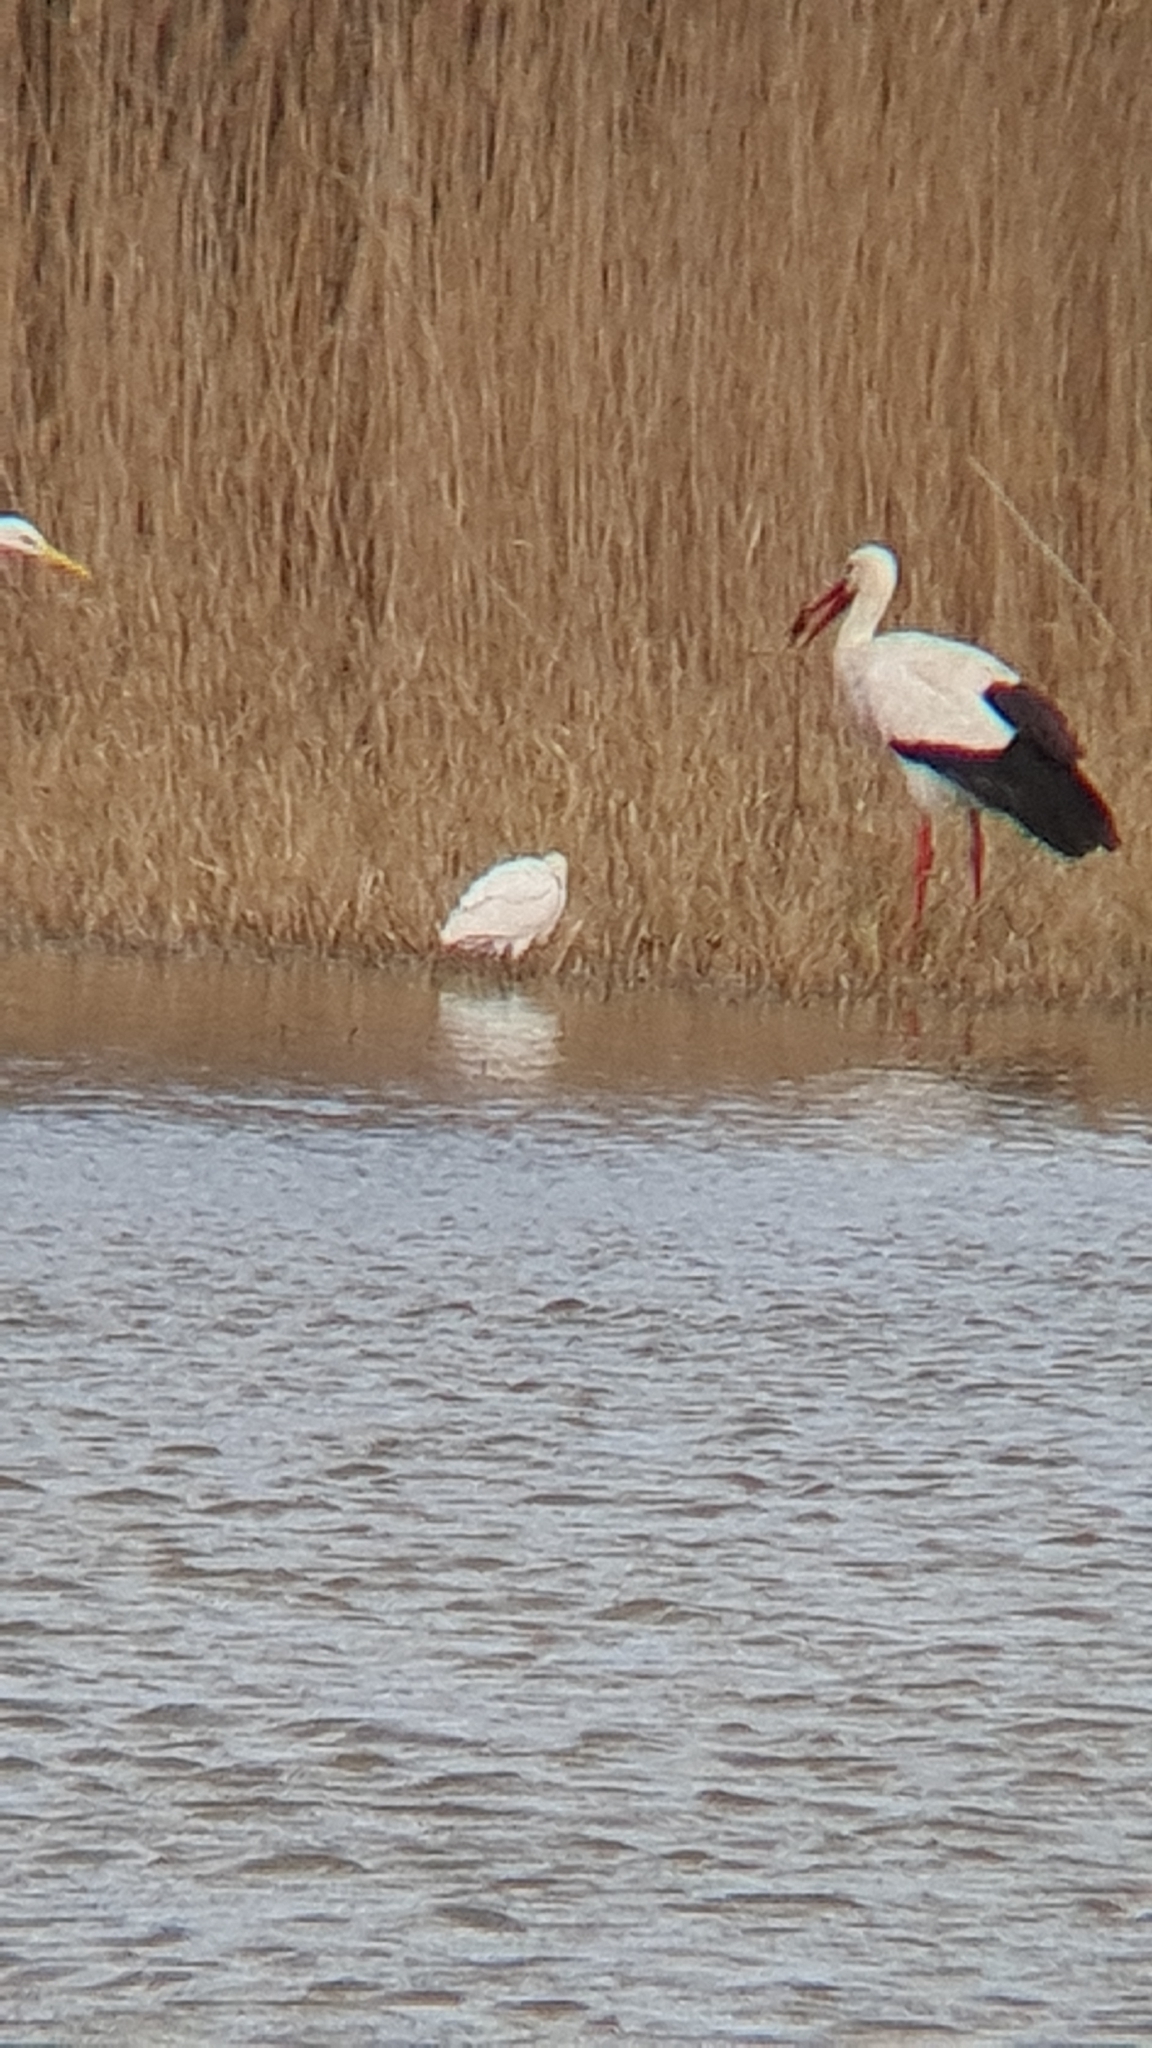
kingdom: Animalia
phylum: Chordata
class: Aves
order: Ciconiiformes
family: Ciconiidae
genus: Ciconia
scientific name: Ciconia ciconia
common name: White stork
